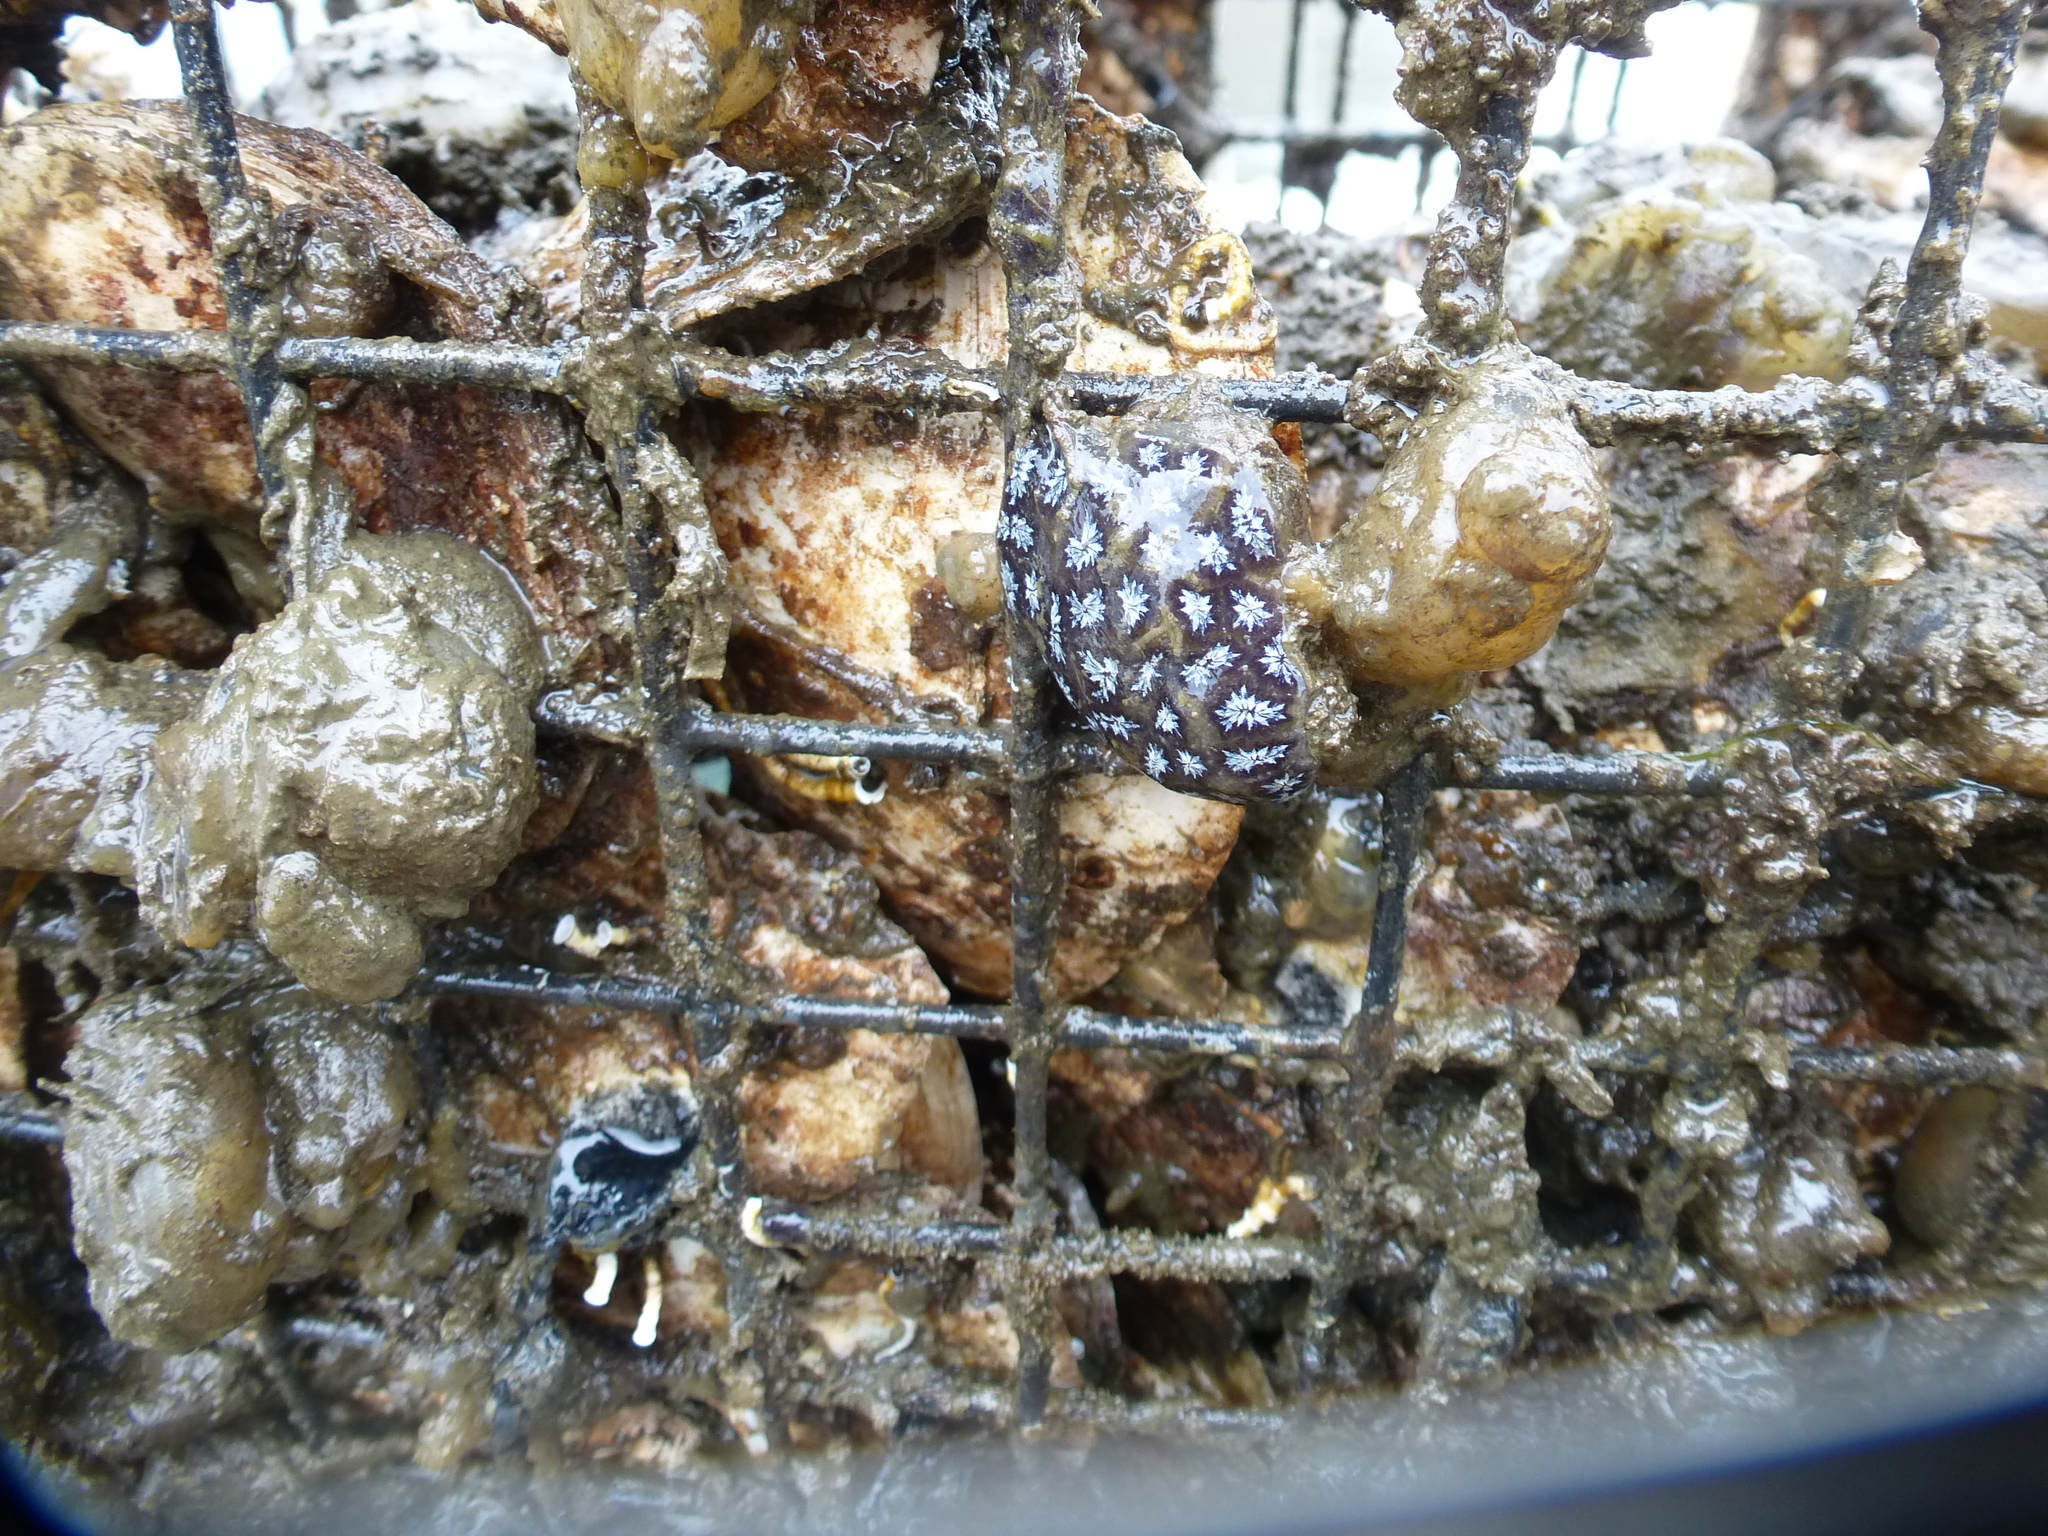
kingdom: Animalia
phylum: Chordata
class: Ascidiacea
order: Stolidobranchia
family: Styelidae
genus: Botryllus
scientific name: Botryllus schlosseri
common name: Golden star tunicate
